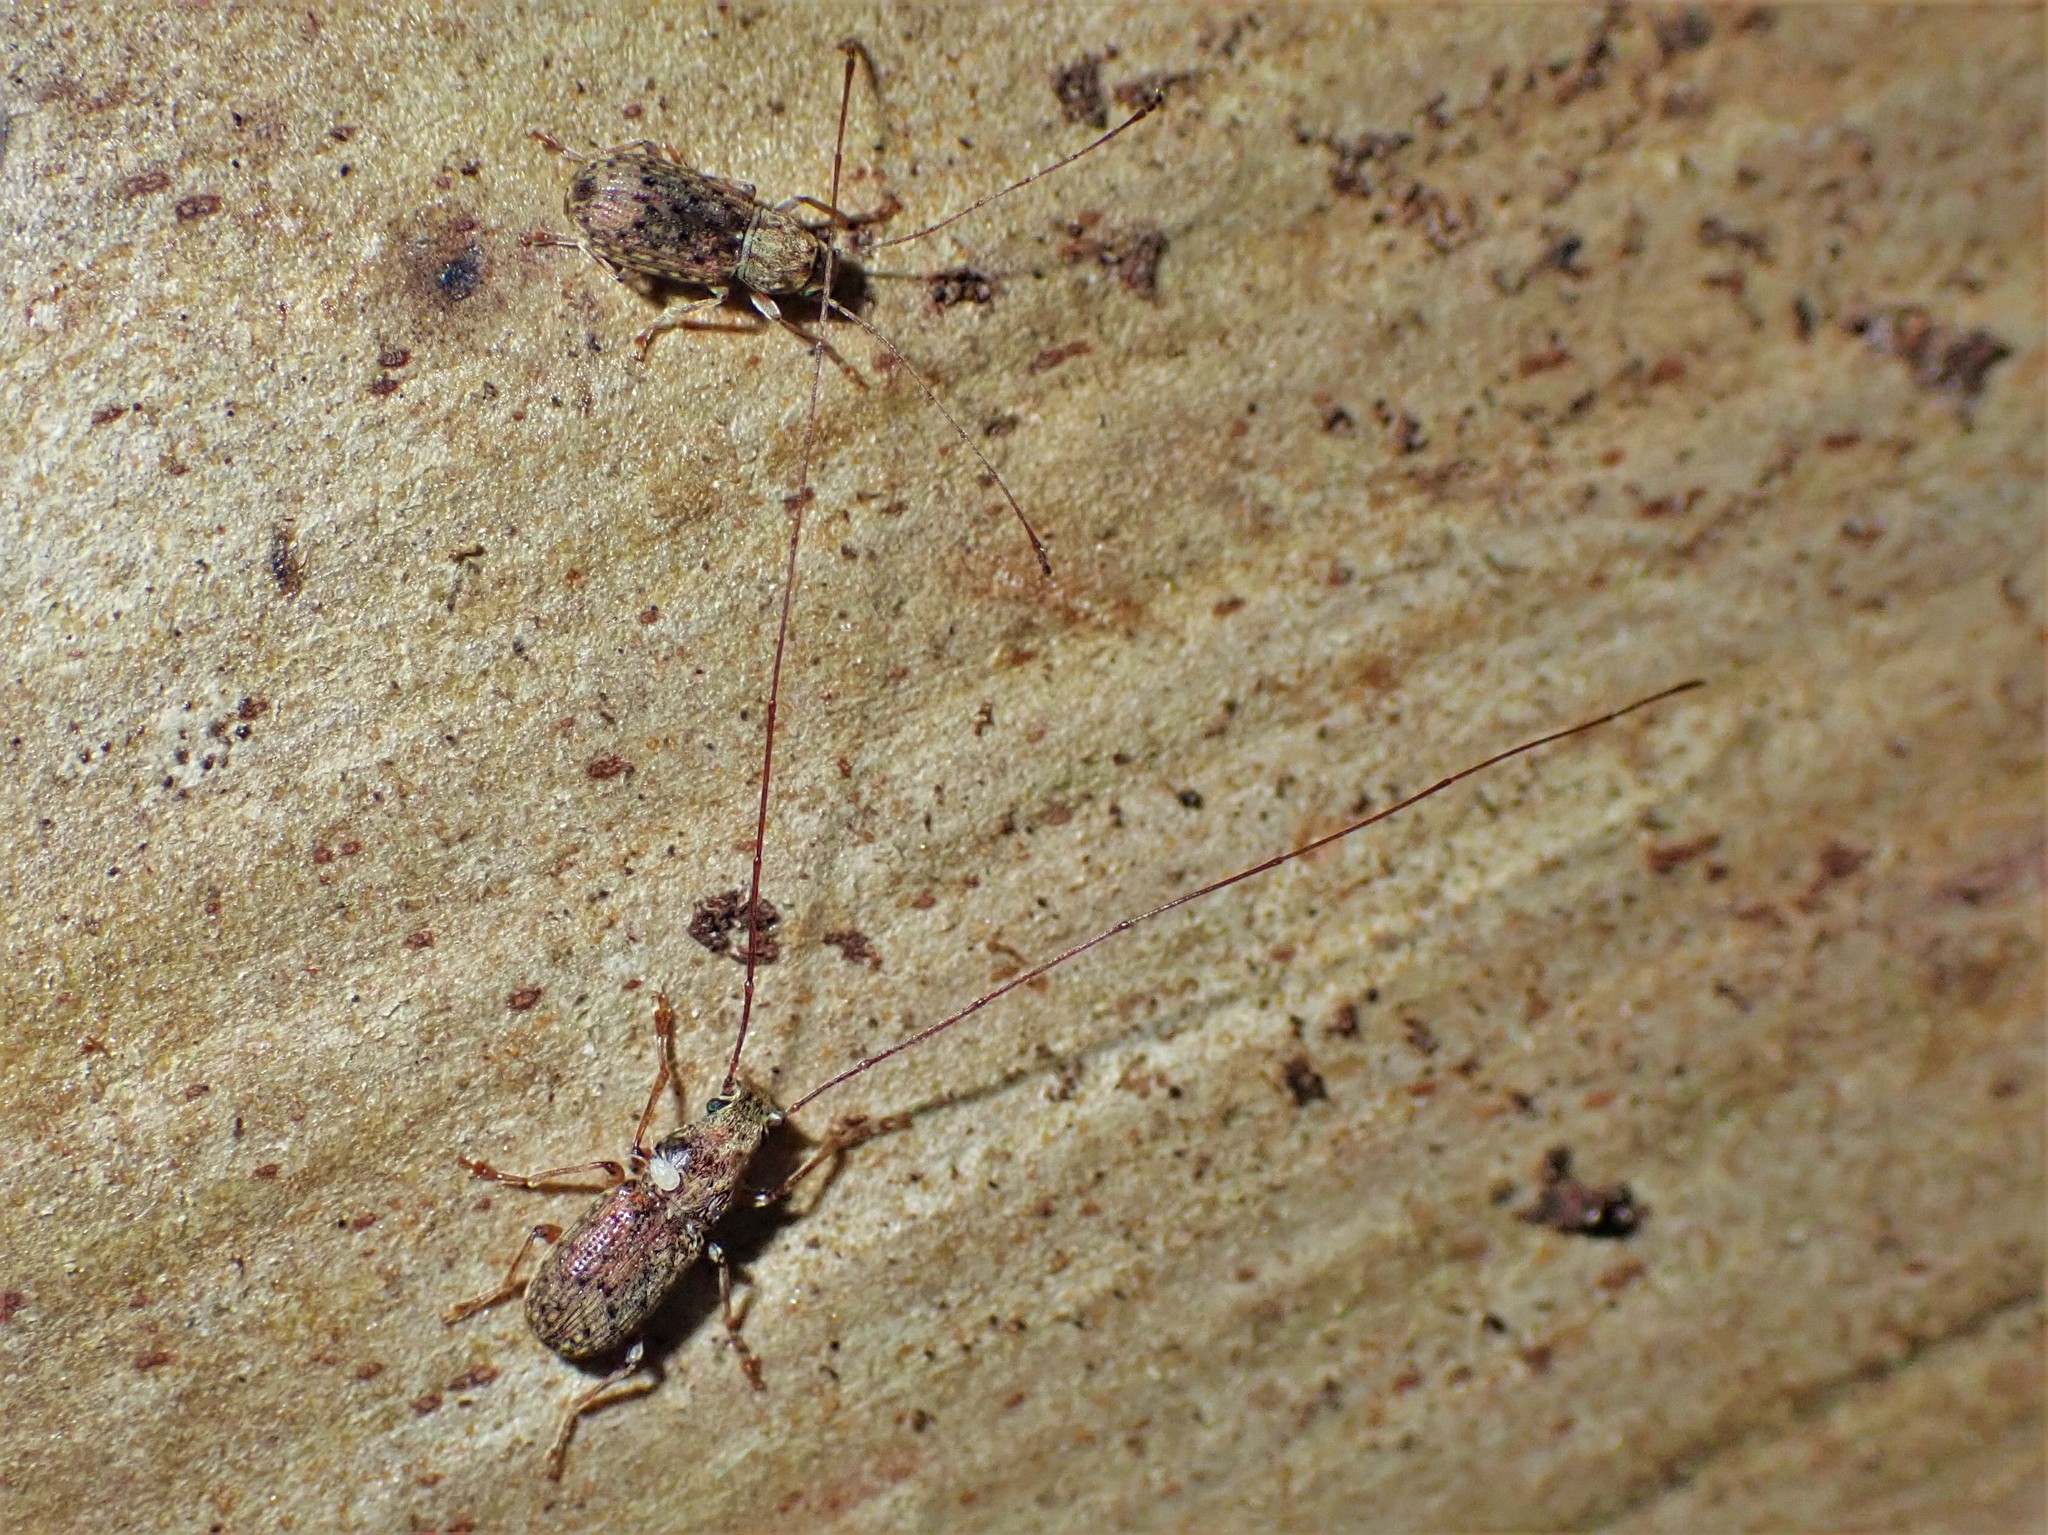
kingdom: Animalia
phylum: Arthropoda
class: Insecta
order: Coleoptera
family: Anthribidae
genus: Arecopais
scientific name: Arecopais spectabilis
